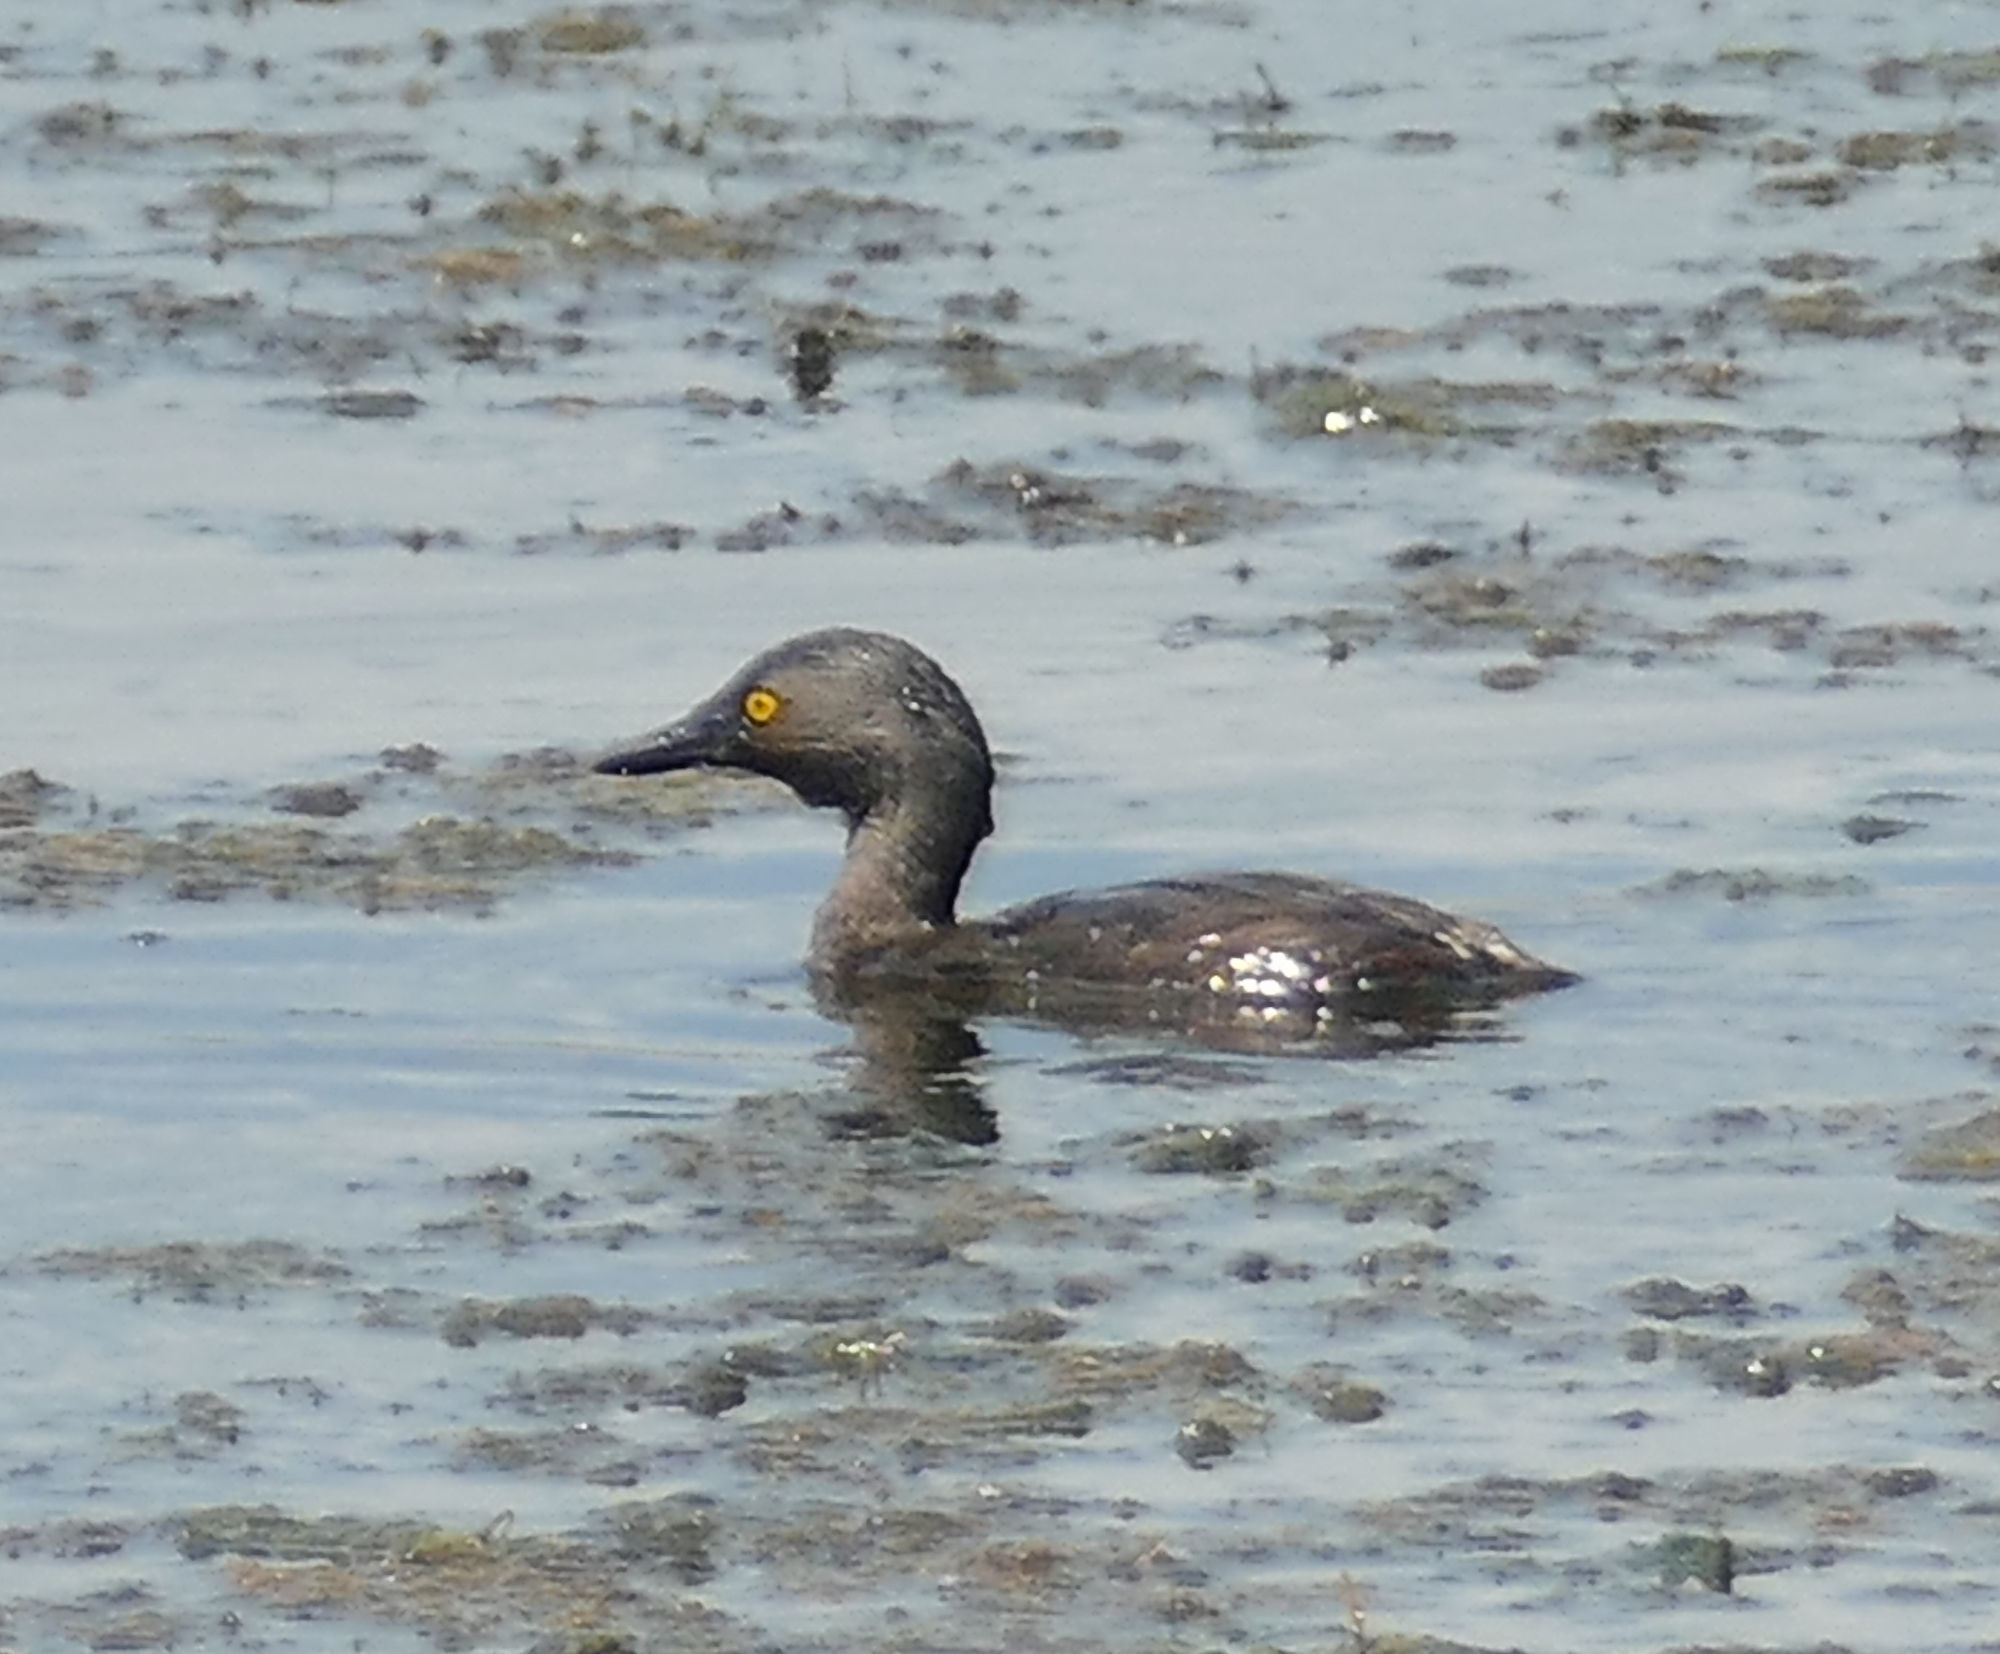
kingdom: Animalia
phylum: Chordata
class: Aves
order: Podicipediformes
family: Podicipedidae
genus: Tachybaptus
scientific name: Tachybaptus dominicus
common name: Least grebe
